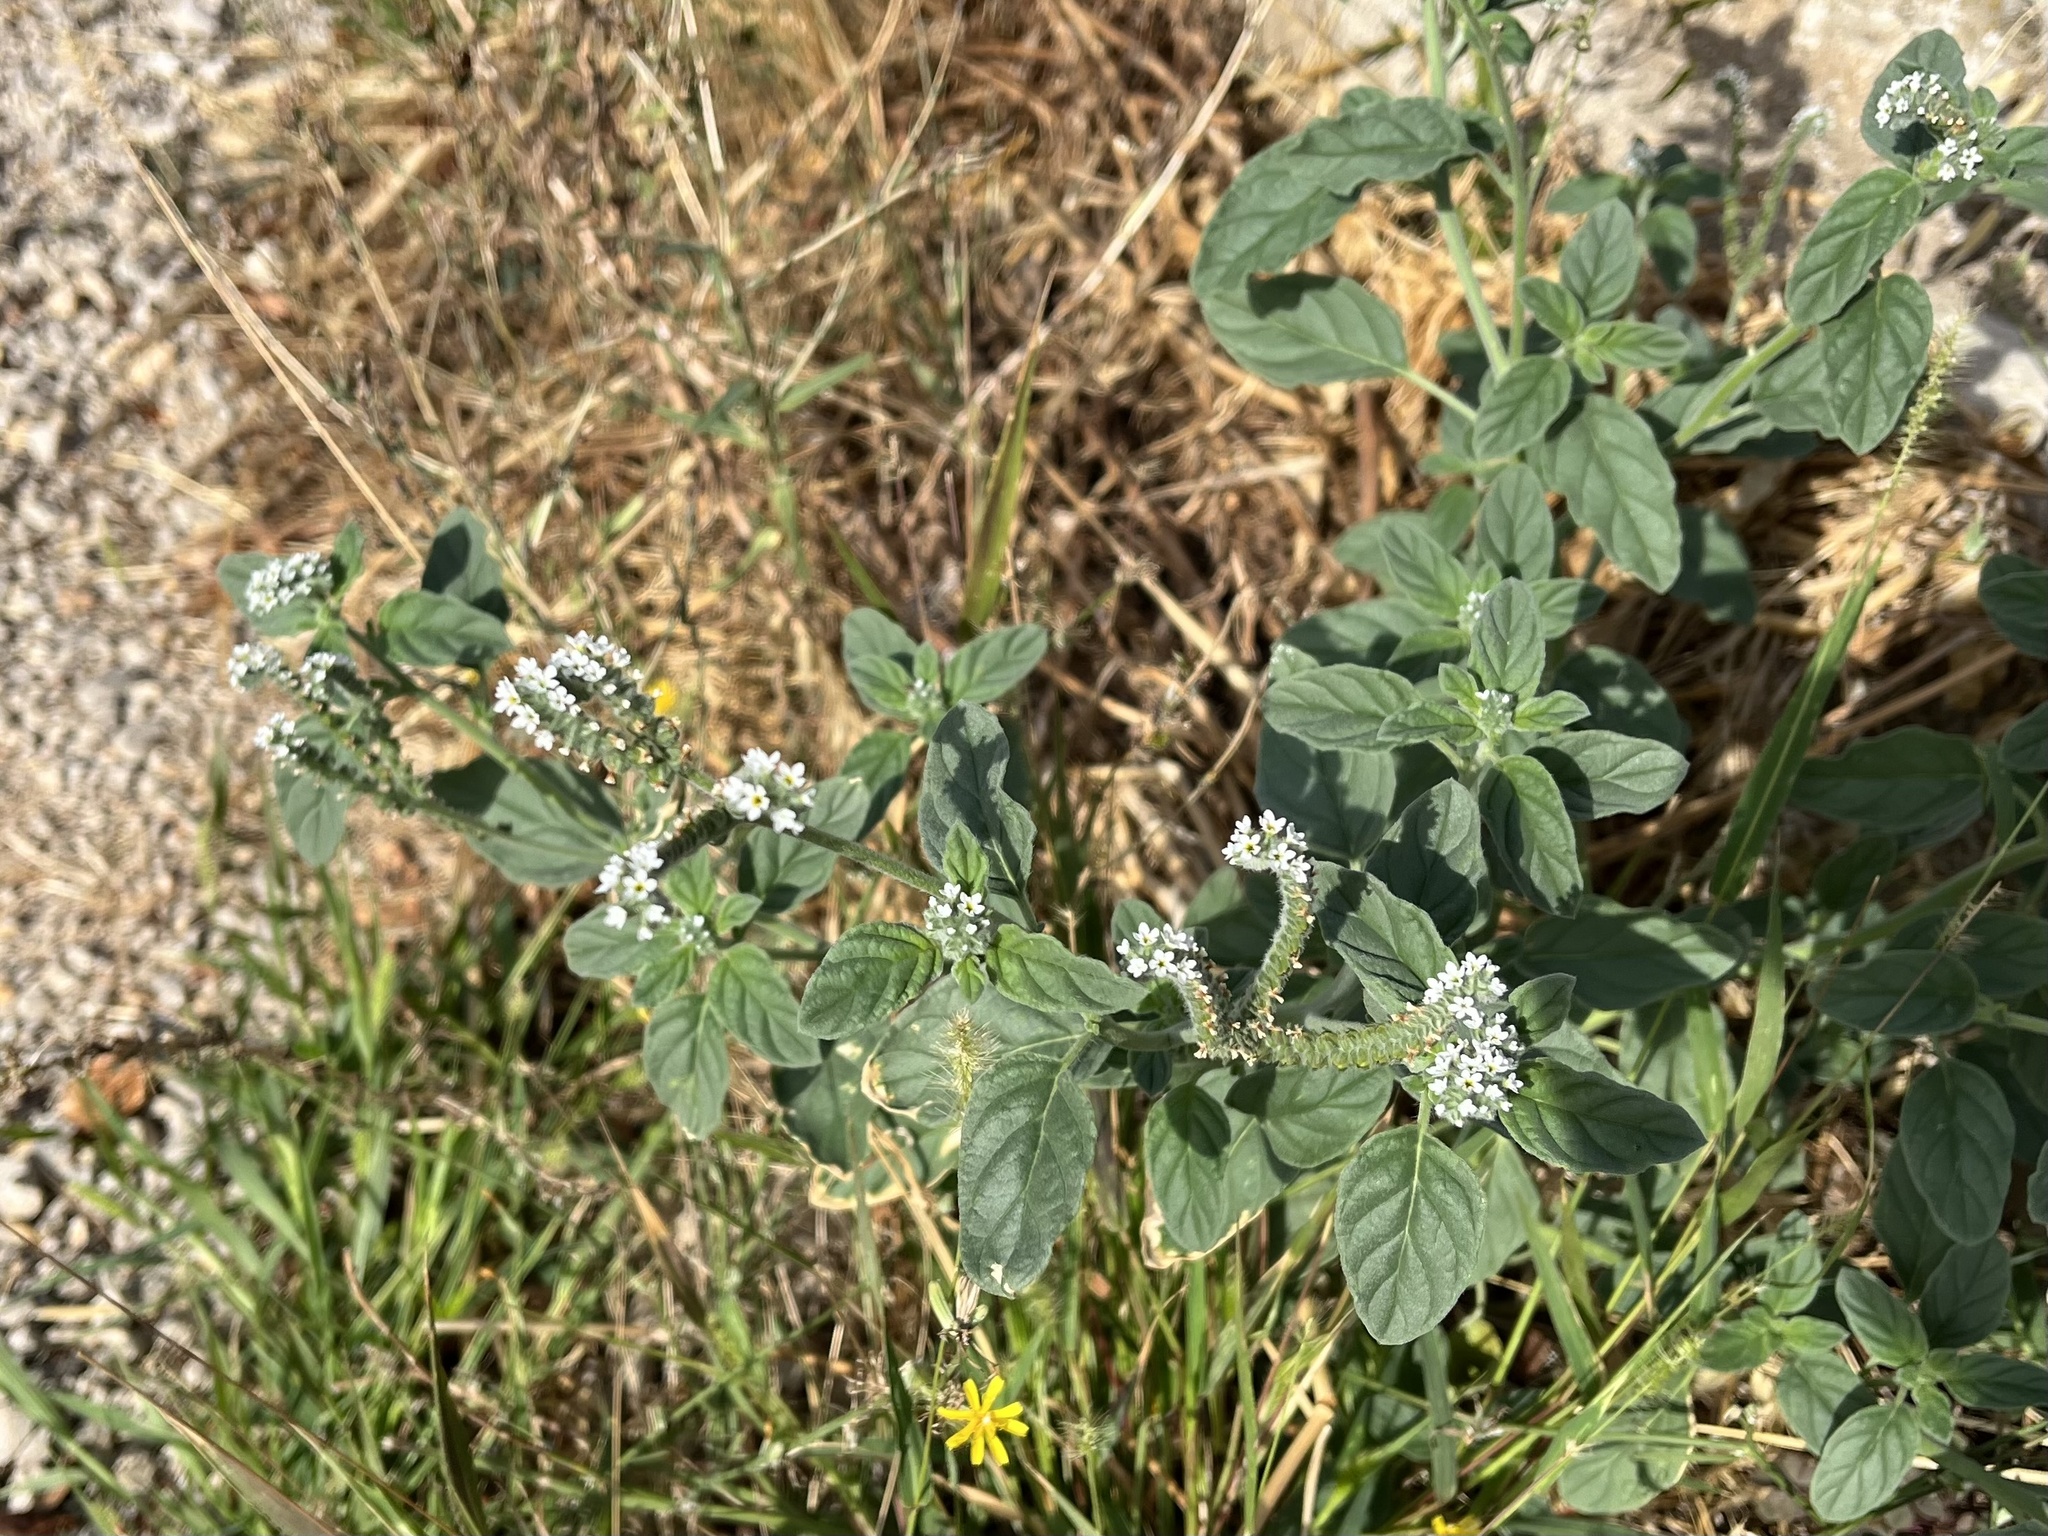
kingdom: Plantae
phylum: Tracheophyta
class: Magnoliopsida
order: Boraginales
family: Heliotropiaceae
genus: Heliotropium
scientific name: Heliotropium europaeum
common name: European heliotrope
